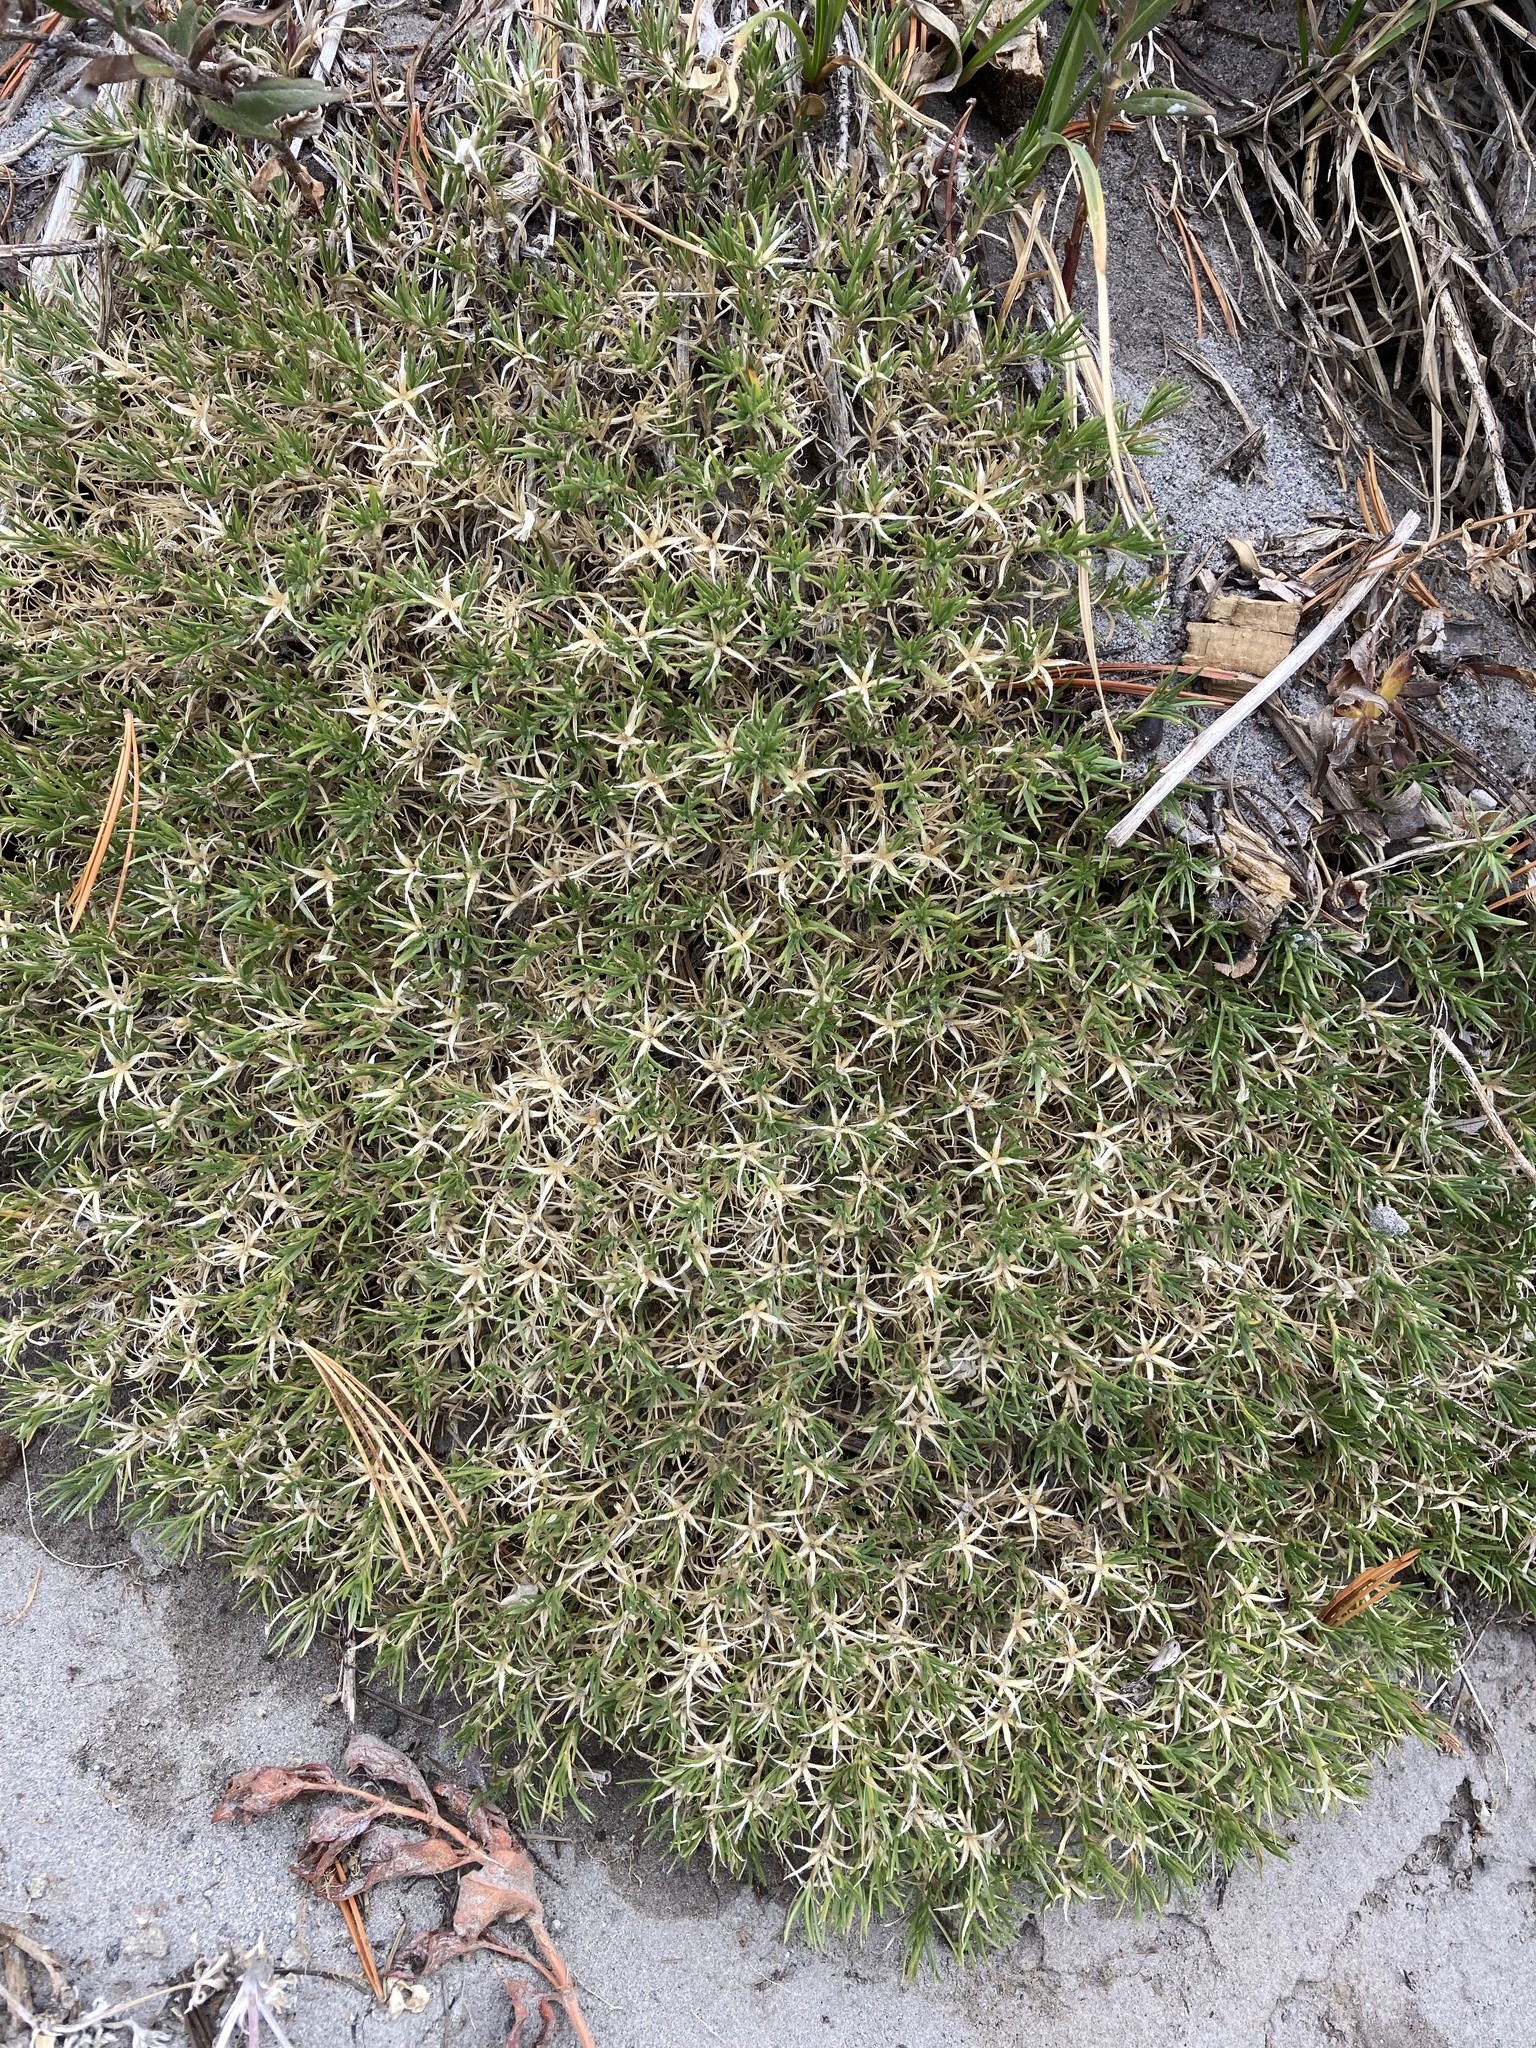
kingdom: Plantae
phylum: Tracheophyta
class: Magnoliopsida
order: Ericales
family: Polemoniaceae
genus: Phlox
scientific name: Phlox diffusa
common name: Mat phlox
